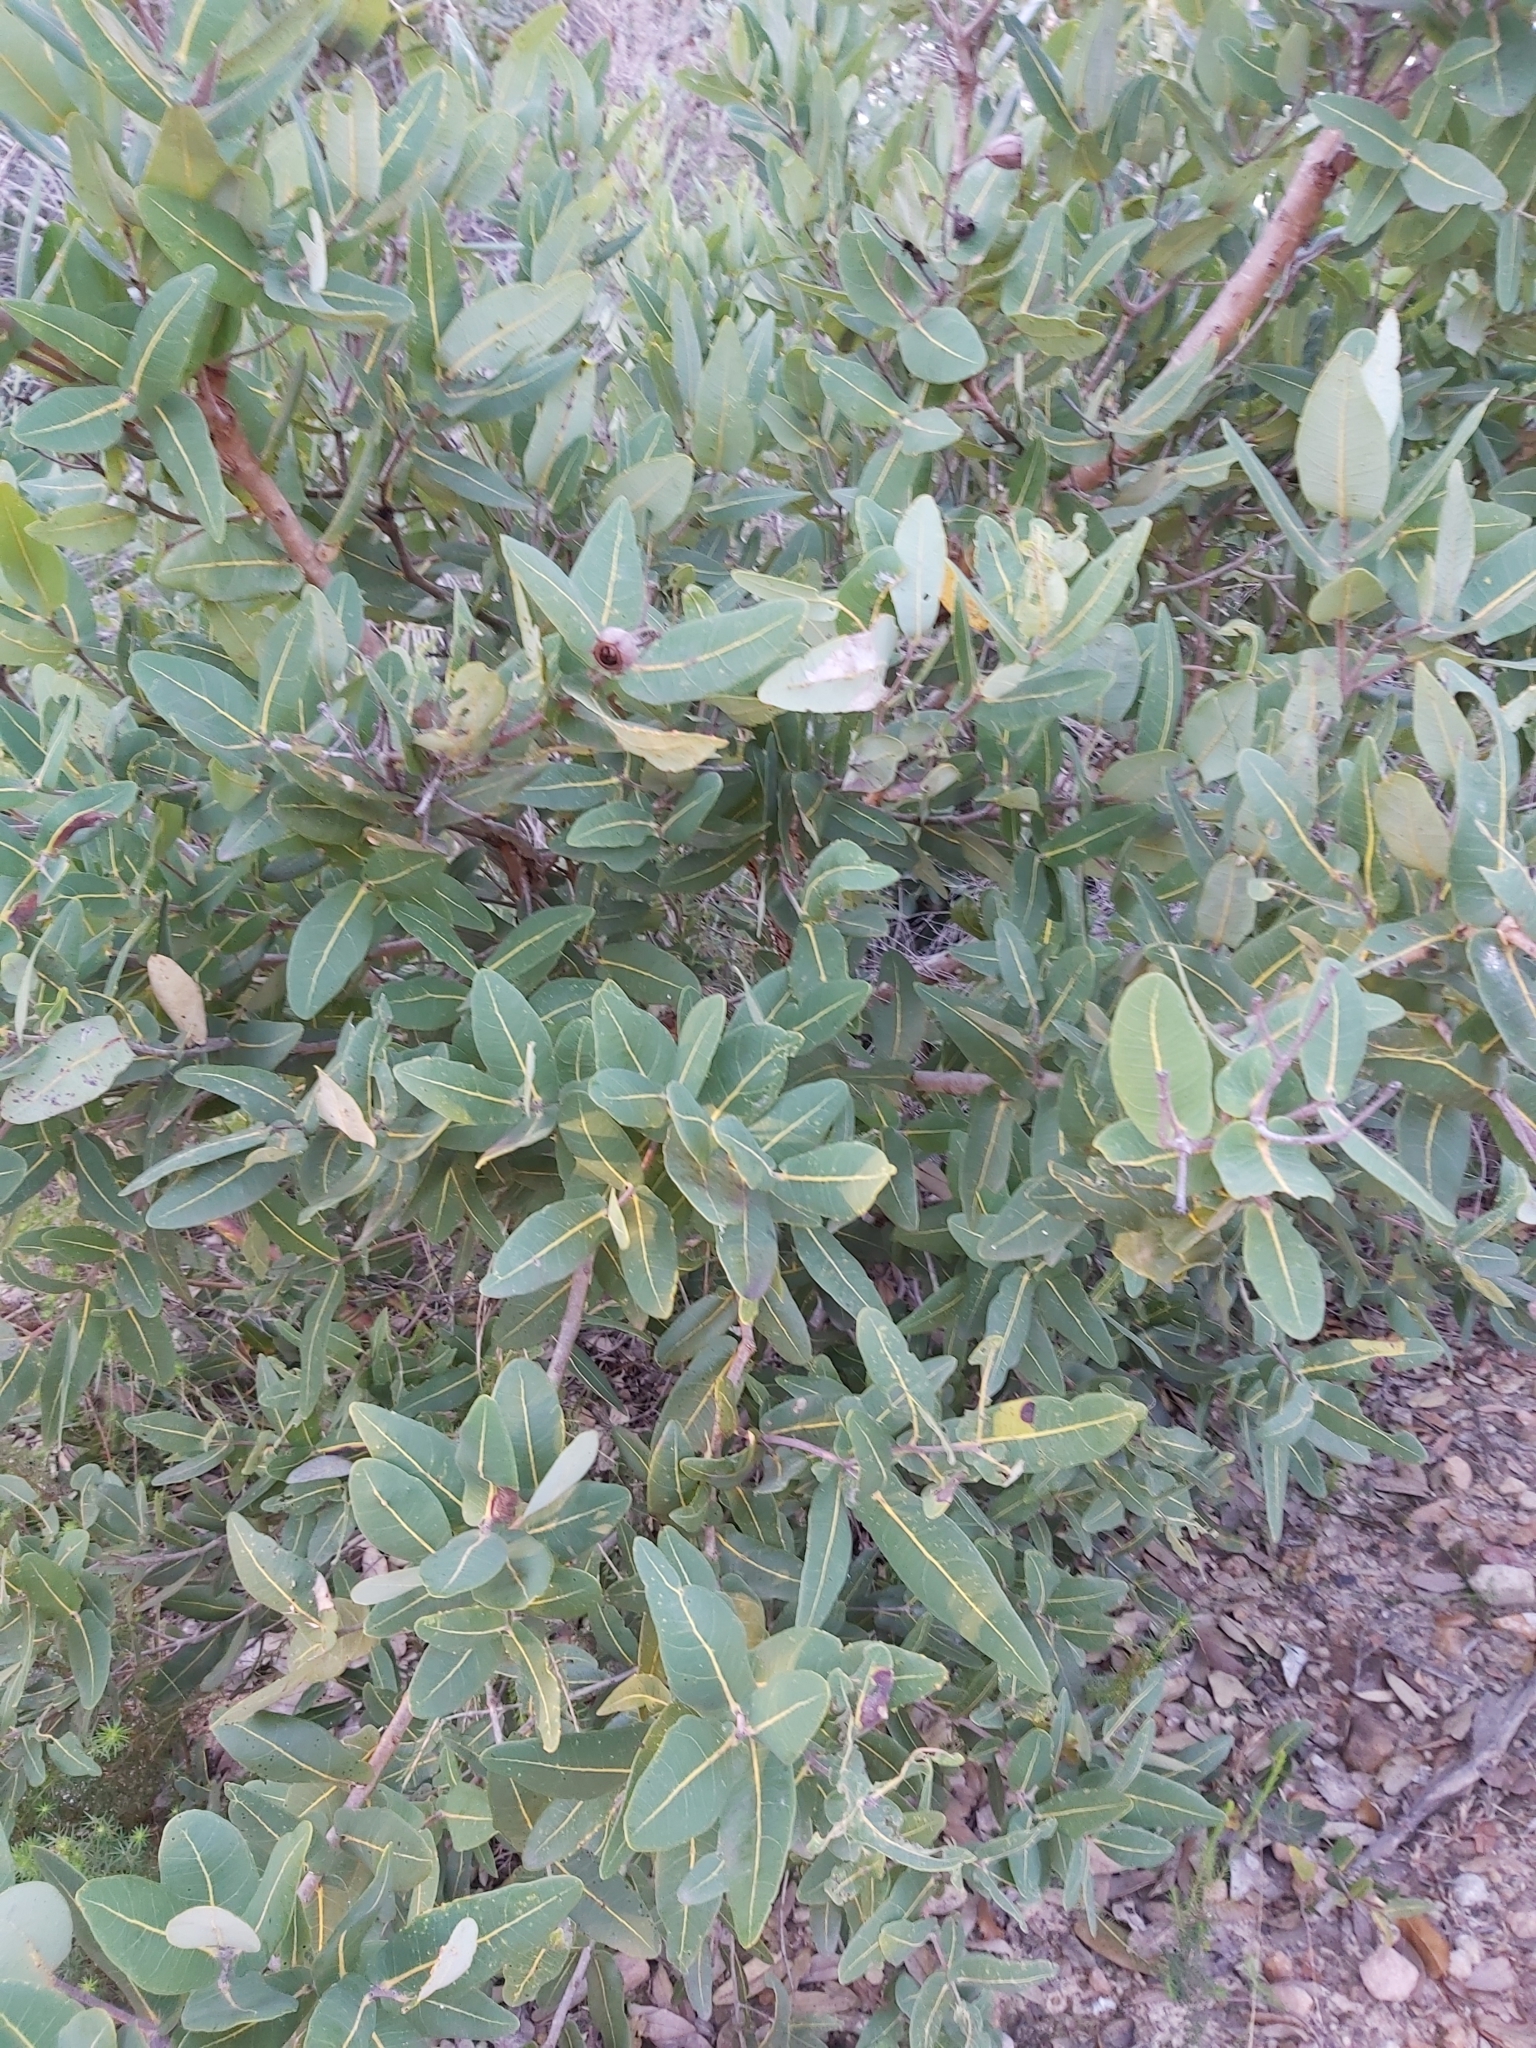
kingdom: Plantae
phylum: Tracheophyta
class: Magnoliopsida
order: Myrtales
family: Myrtaceae
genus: Angophora
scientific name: Angophora hispida
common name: Dwarf-apple
